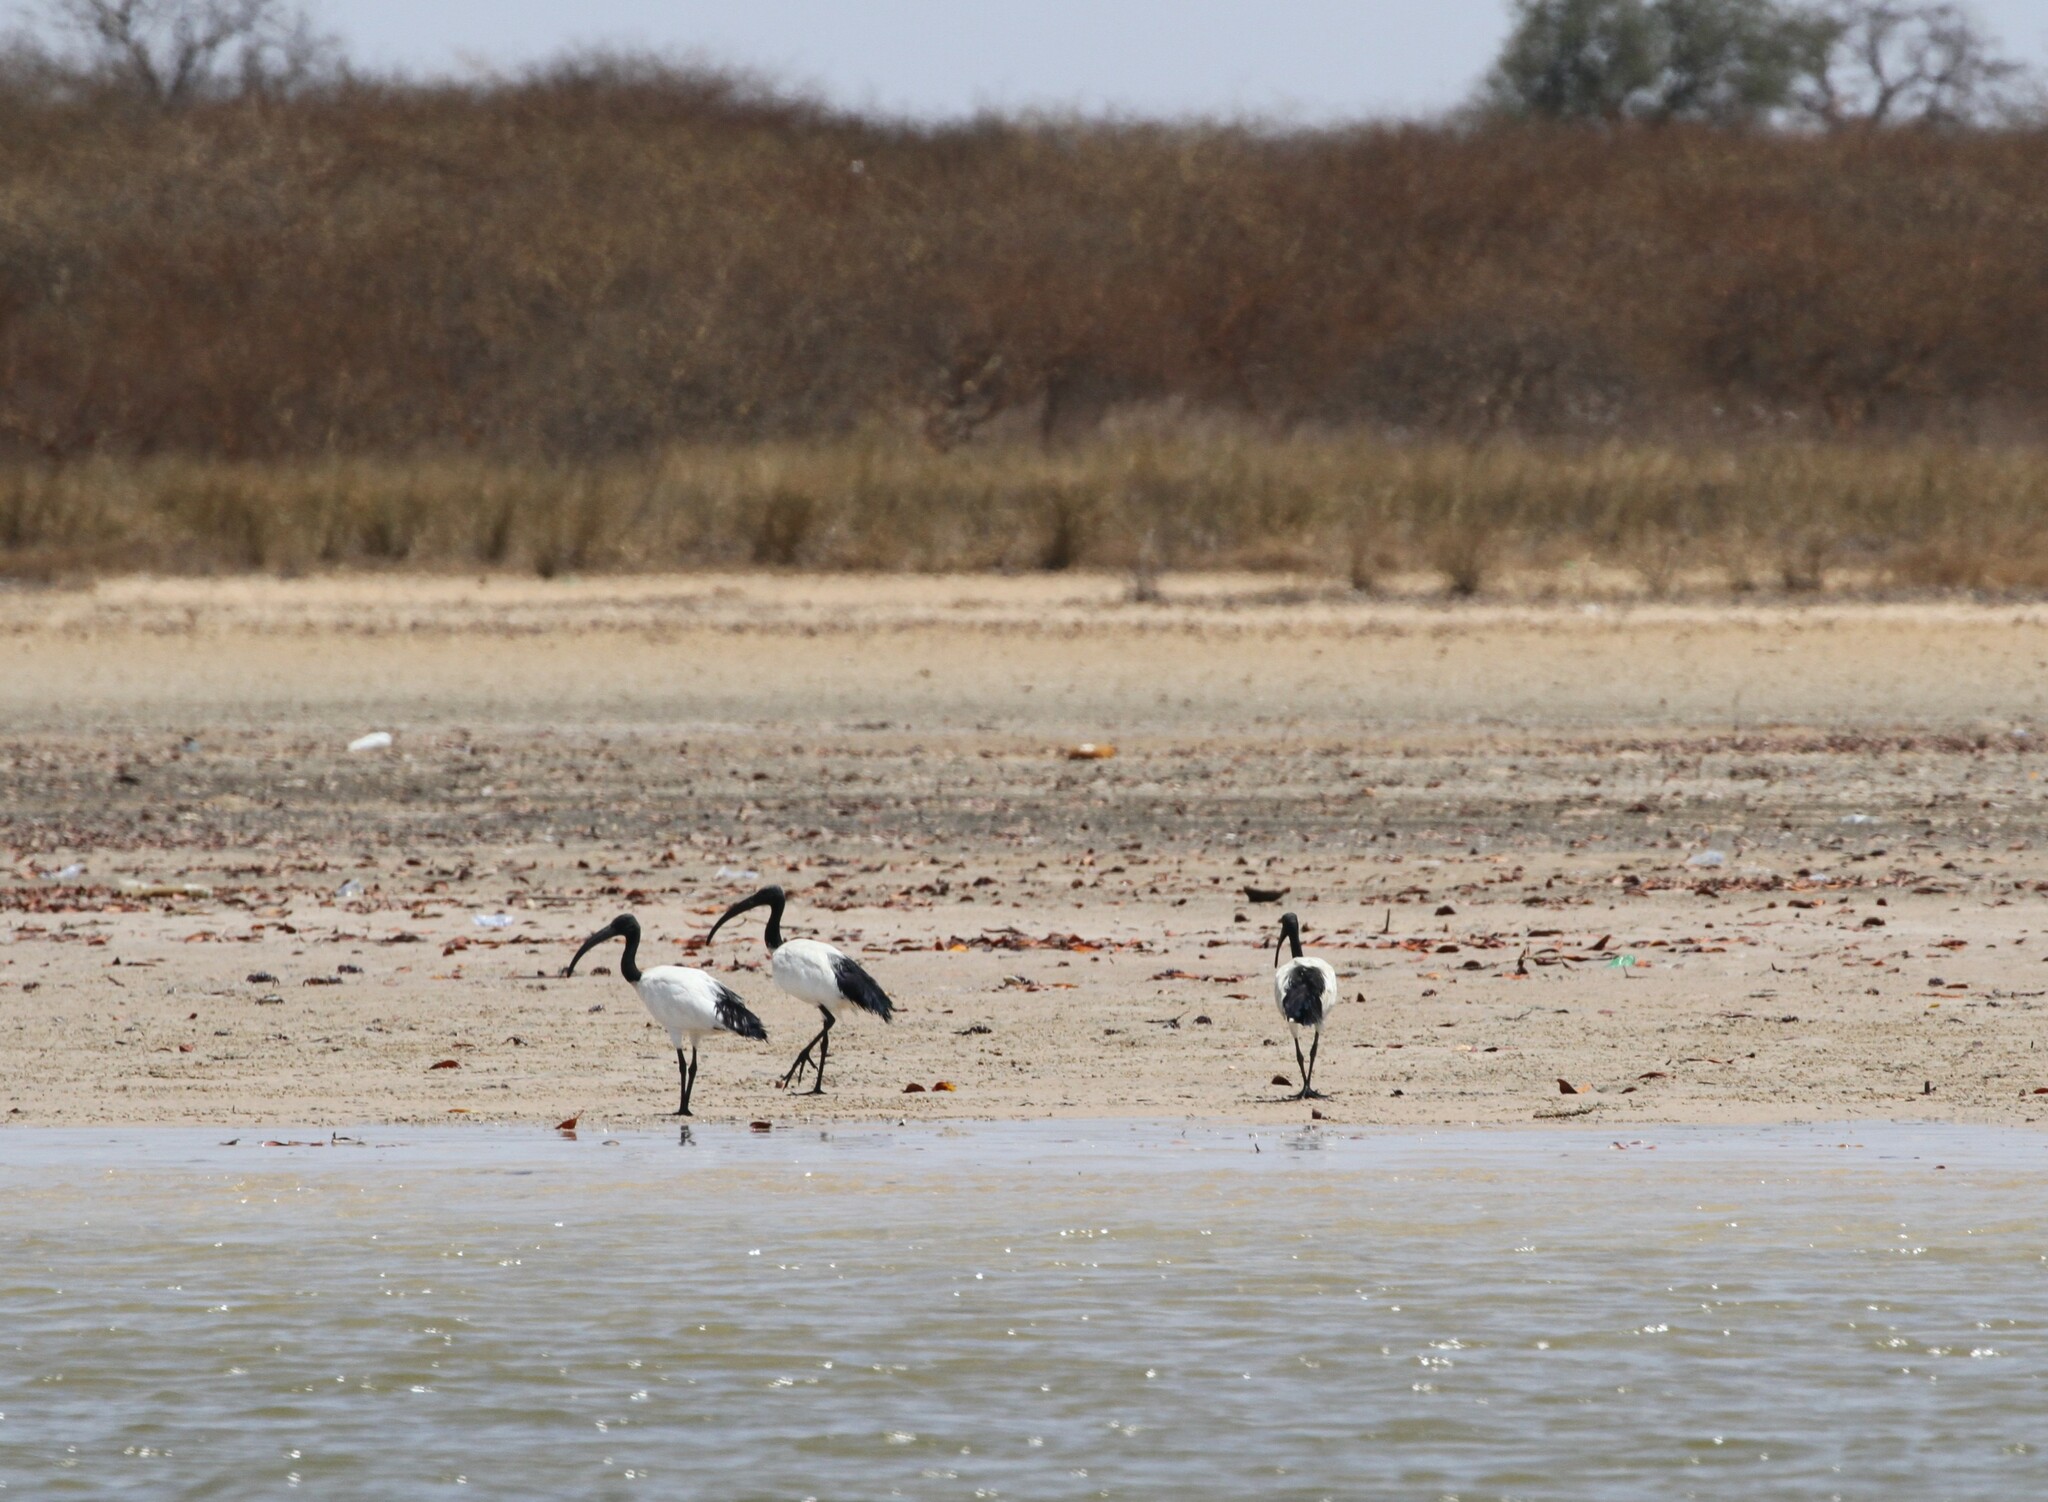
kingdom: Animalia
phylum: Chordata
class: Aves
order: Pelecaniformes
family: Threskiornithidae
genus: Threskiornis
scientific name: Threskiornis aethiopicus
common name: Sacred ibis
